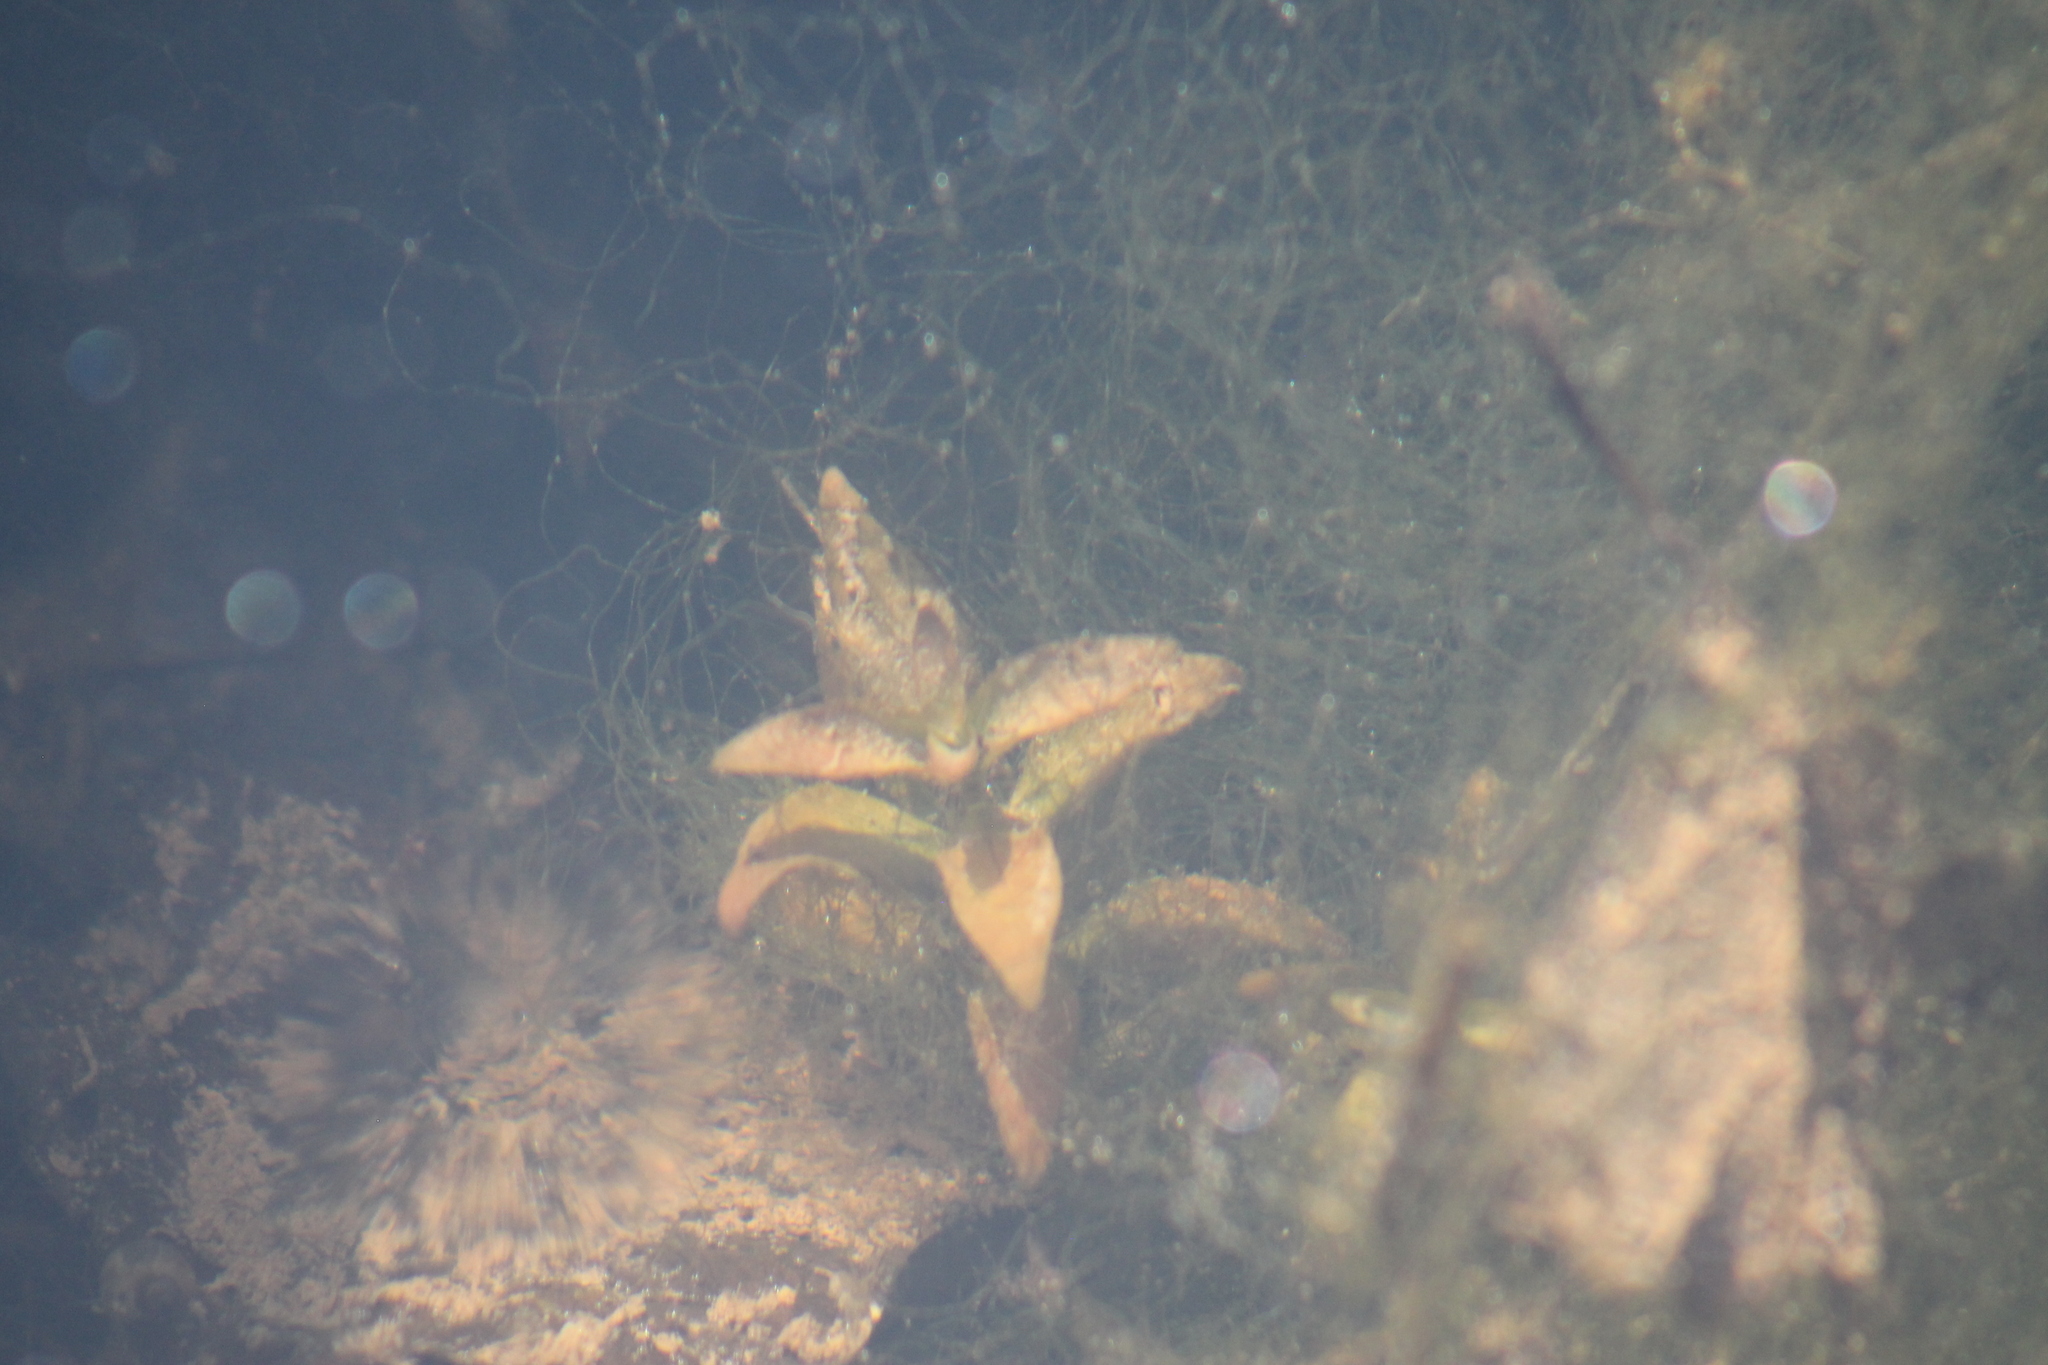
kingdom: Plantae
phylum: Tracheophyta
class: Magnoliopsida
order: Myrtales
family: Onagraceae
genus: Ludwigia
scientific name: Ludwigia repens
